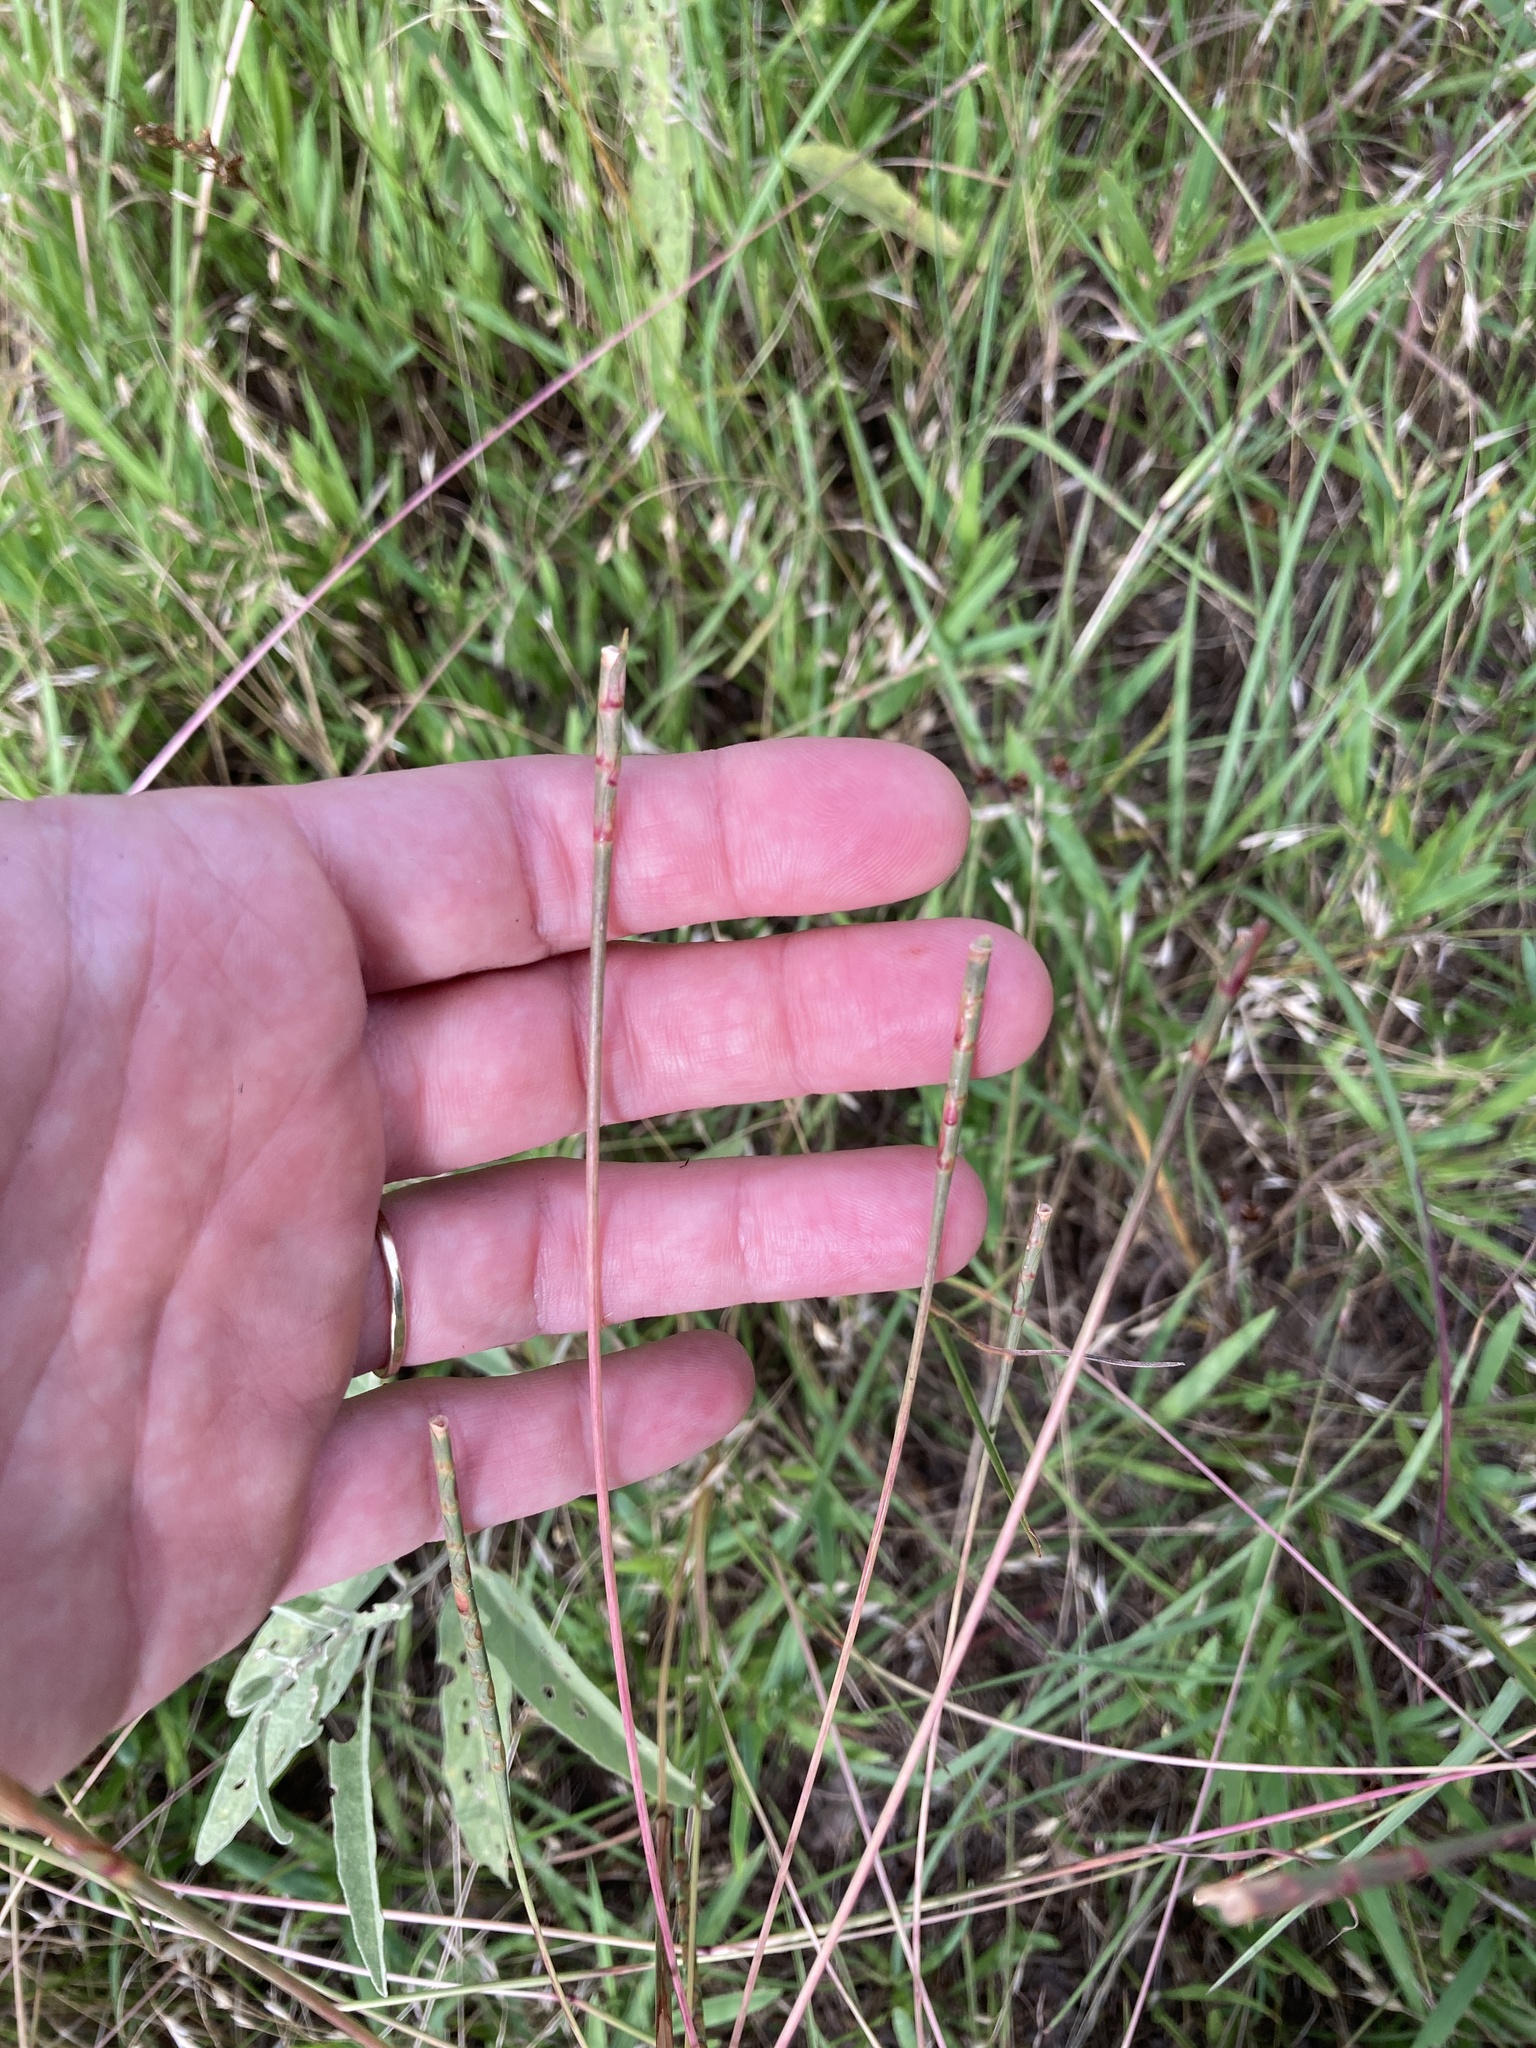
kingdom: Plantae
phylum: Tracheophyta
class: Liliopsida
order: Poales
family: Poaceae
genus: Rottboellia
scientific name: Rottboellia campestris
